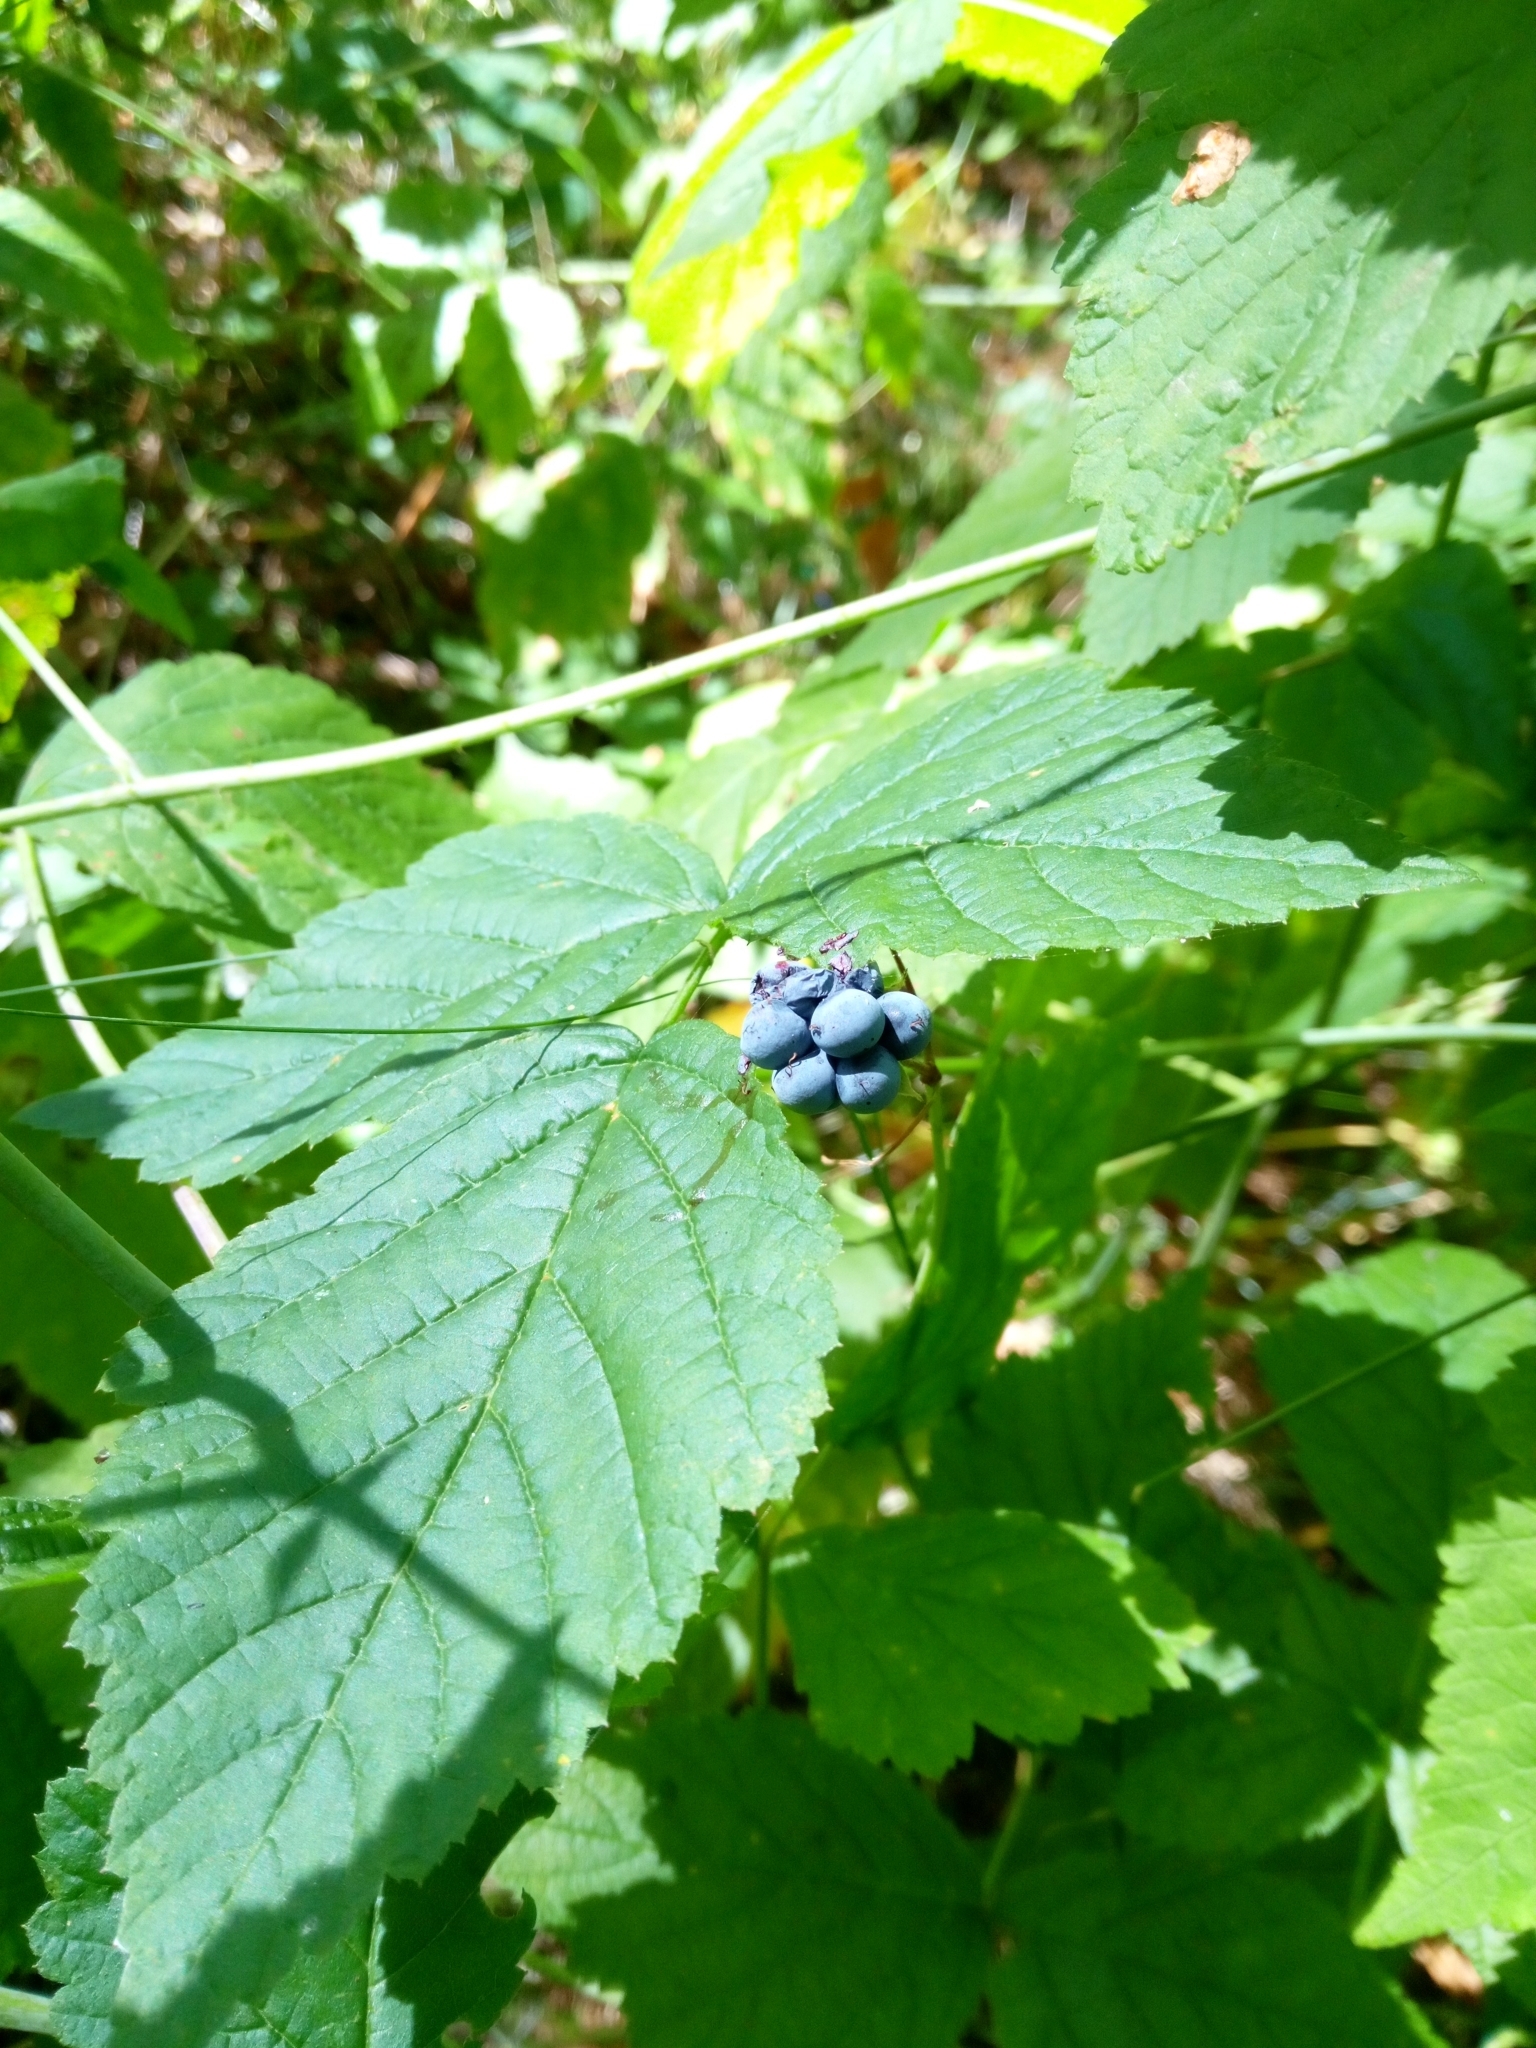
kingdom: Plantae
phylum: Tracheophyta
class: Magnoliopsida
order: Rosales
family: Rosaceae
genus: Rubus
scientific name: Rubus caesius
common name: Dewberry
